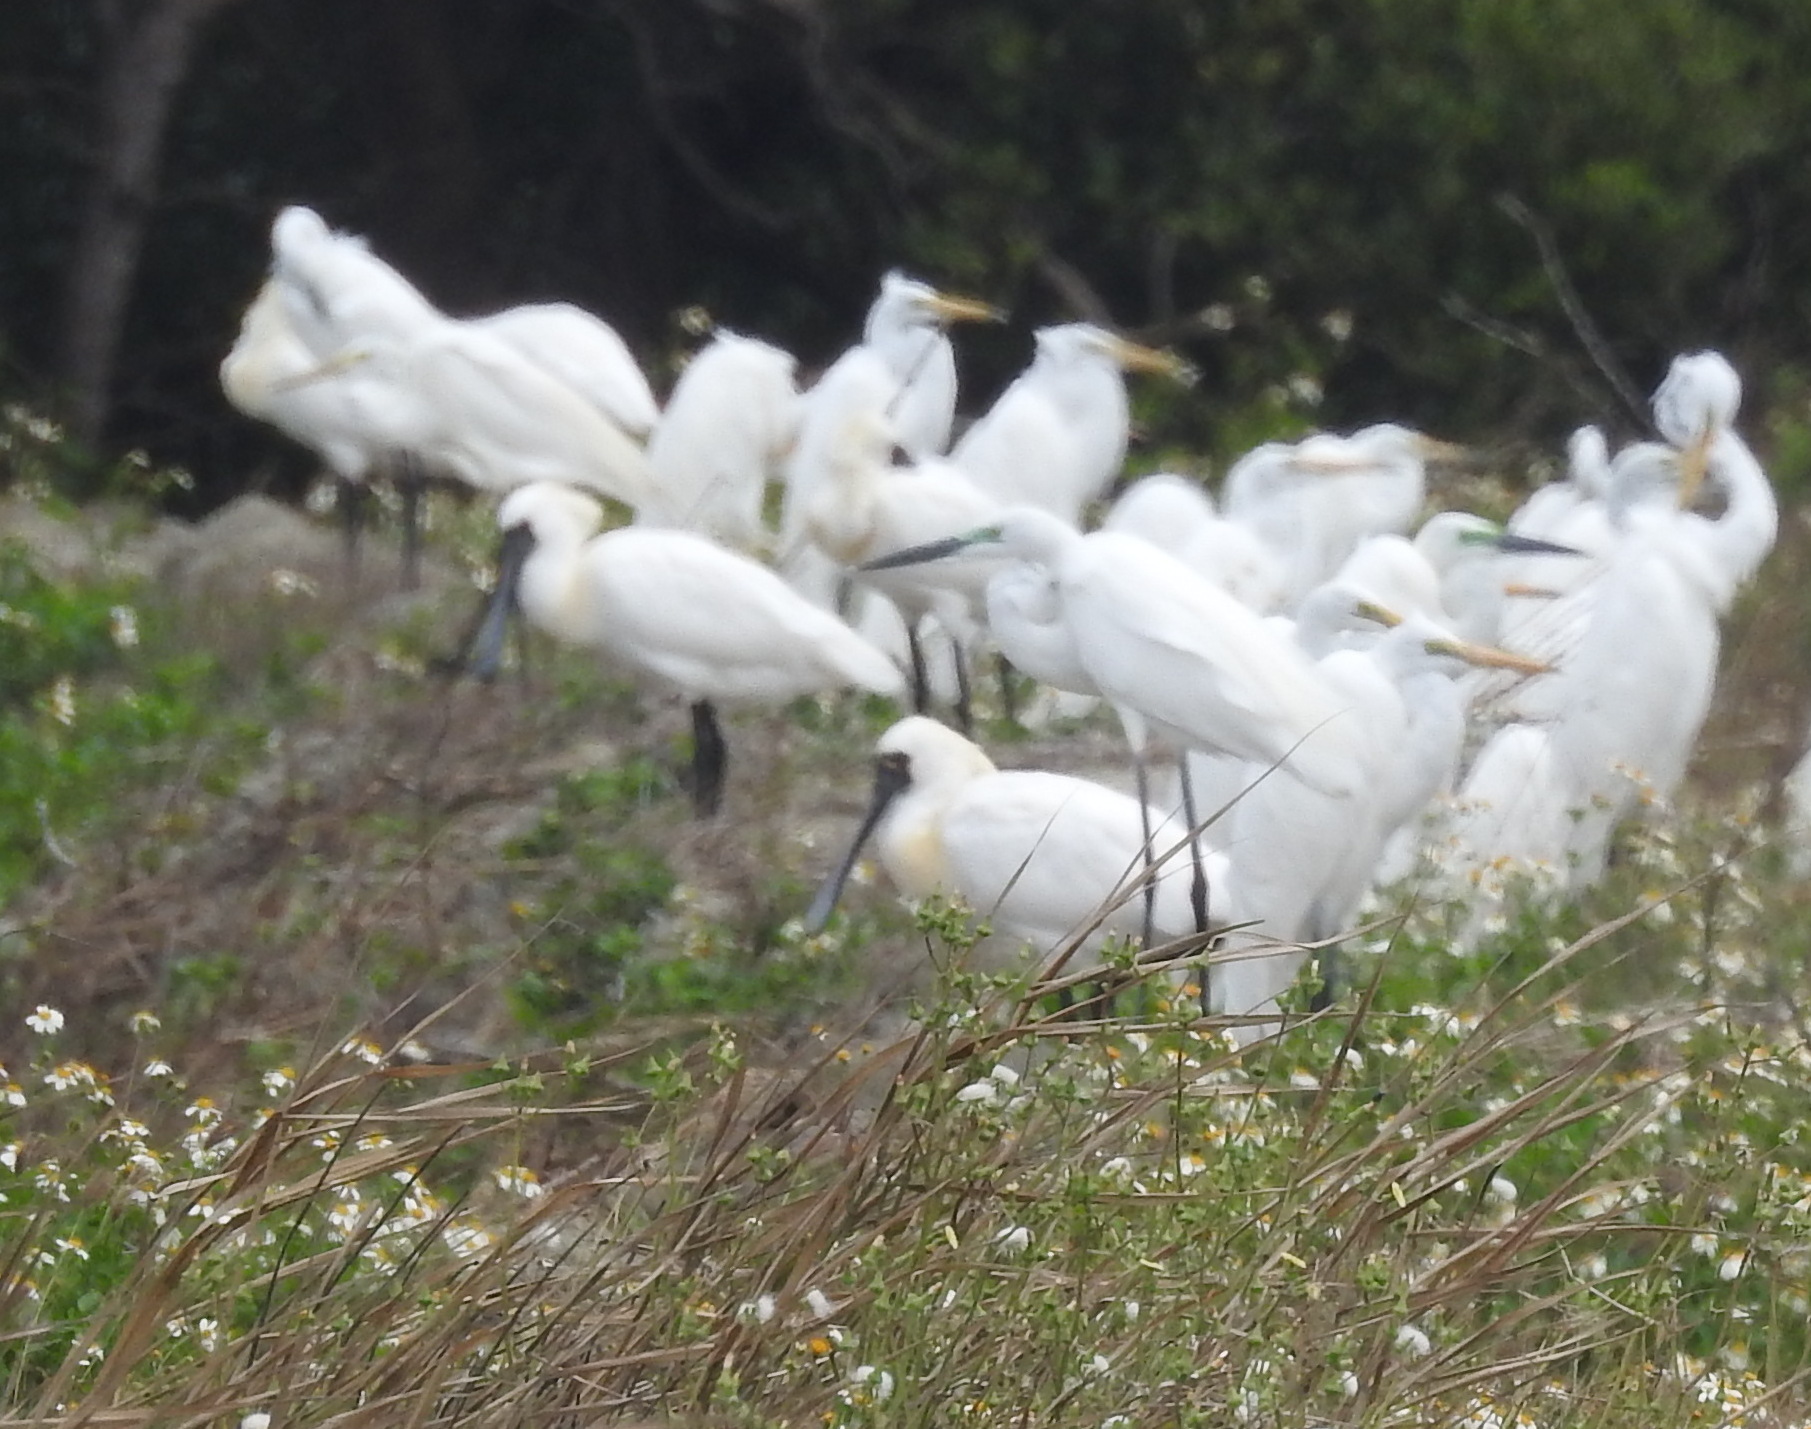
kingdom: Animalia
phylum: Chordata
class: Aves
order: Pelecaniformes
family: Threskiornithidae
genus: Platalea
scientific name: Platalea minor
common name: Black-faced spoonbill
